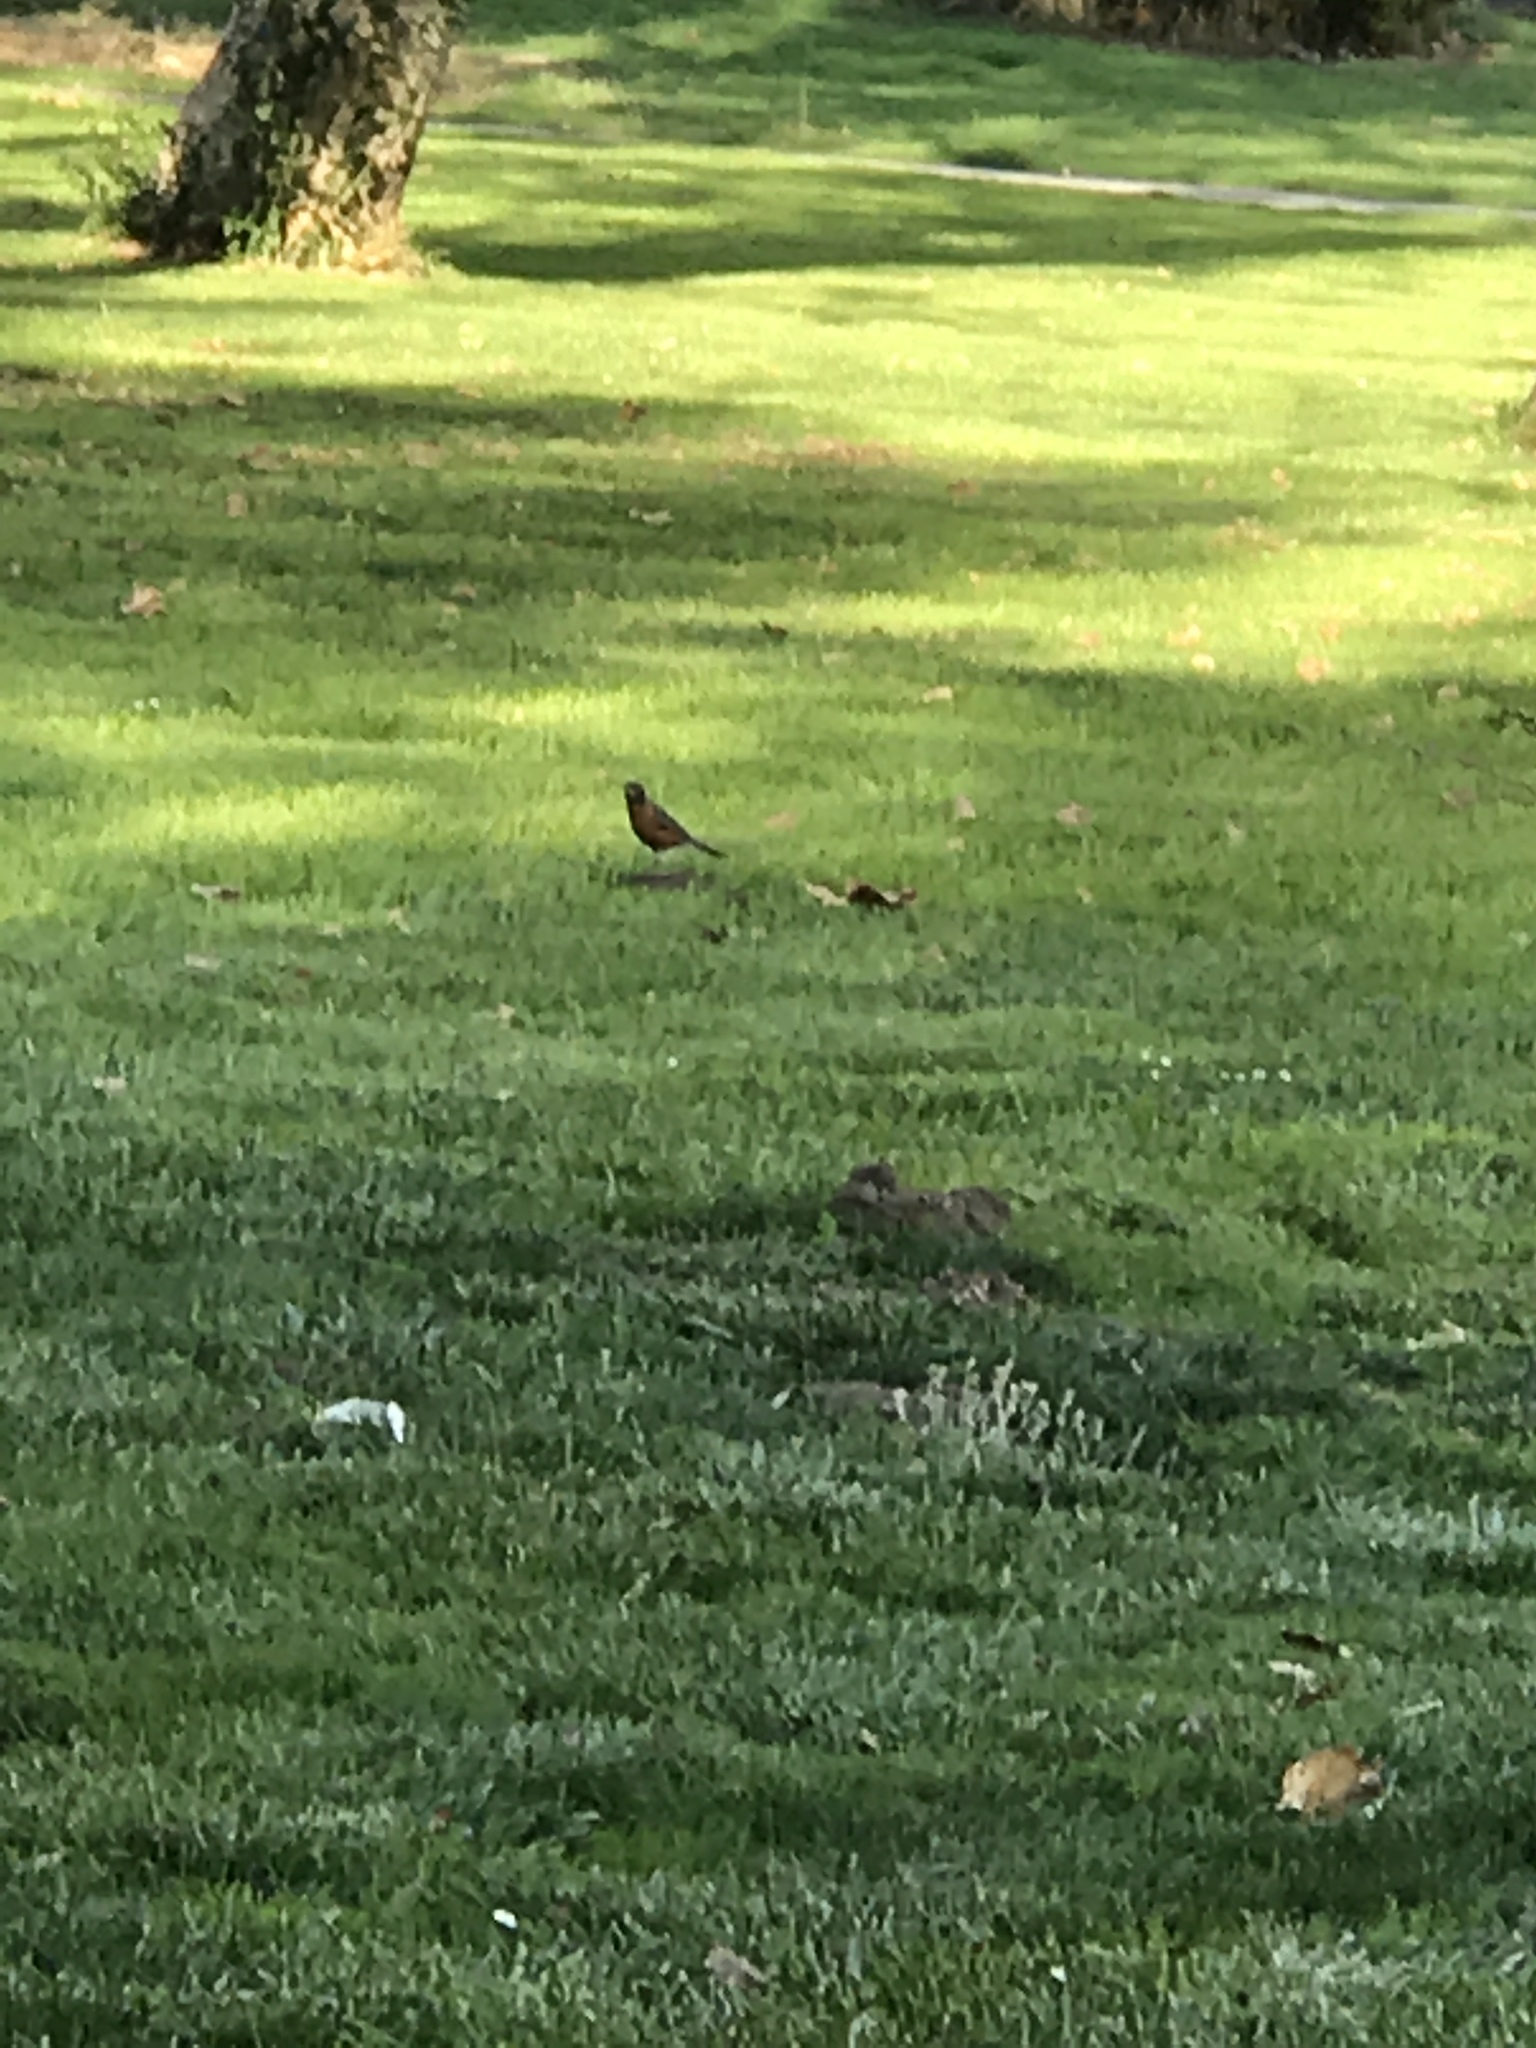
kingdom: Animalia
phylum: Chordata
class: Aves
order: Passeriformes
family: Turdidae
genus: Turdus
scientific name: Turdus migratorius
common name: American robin
